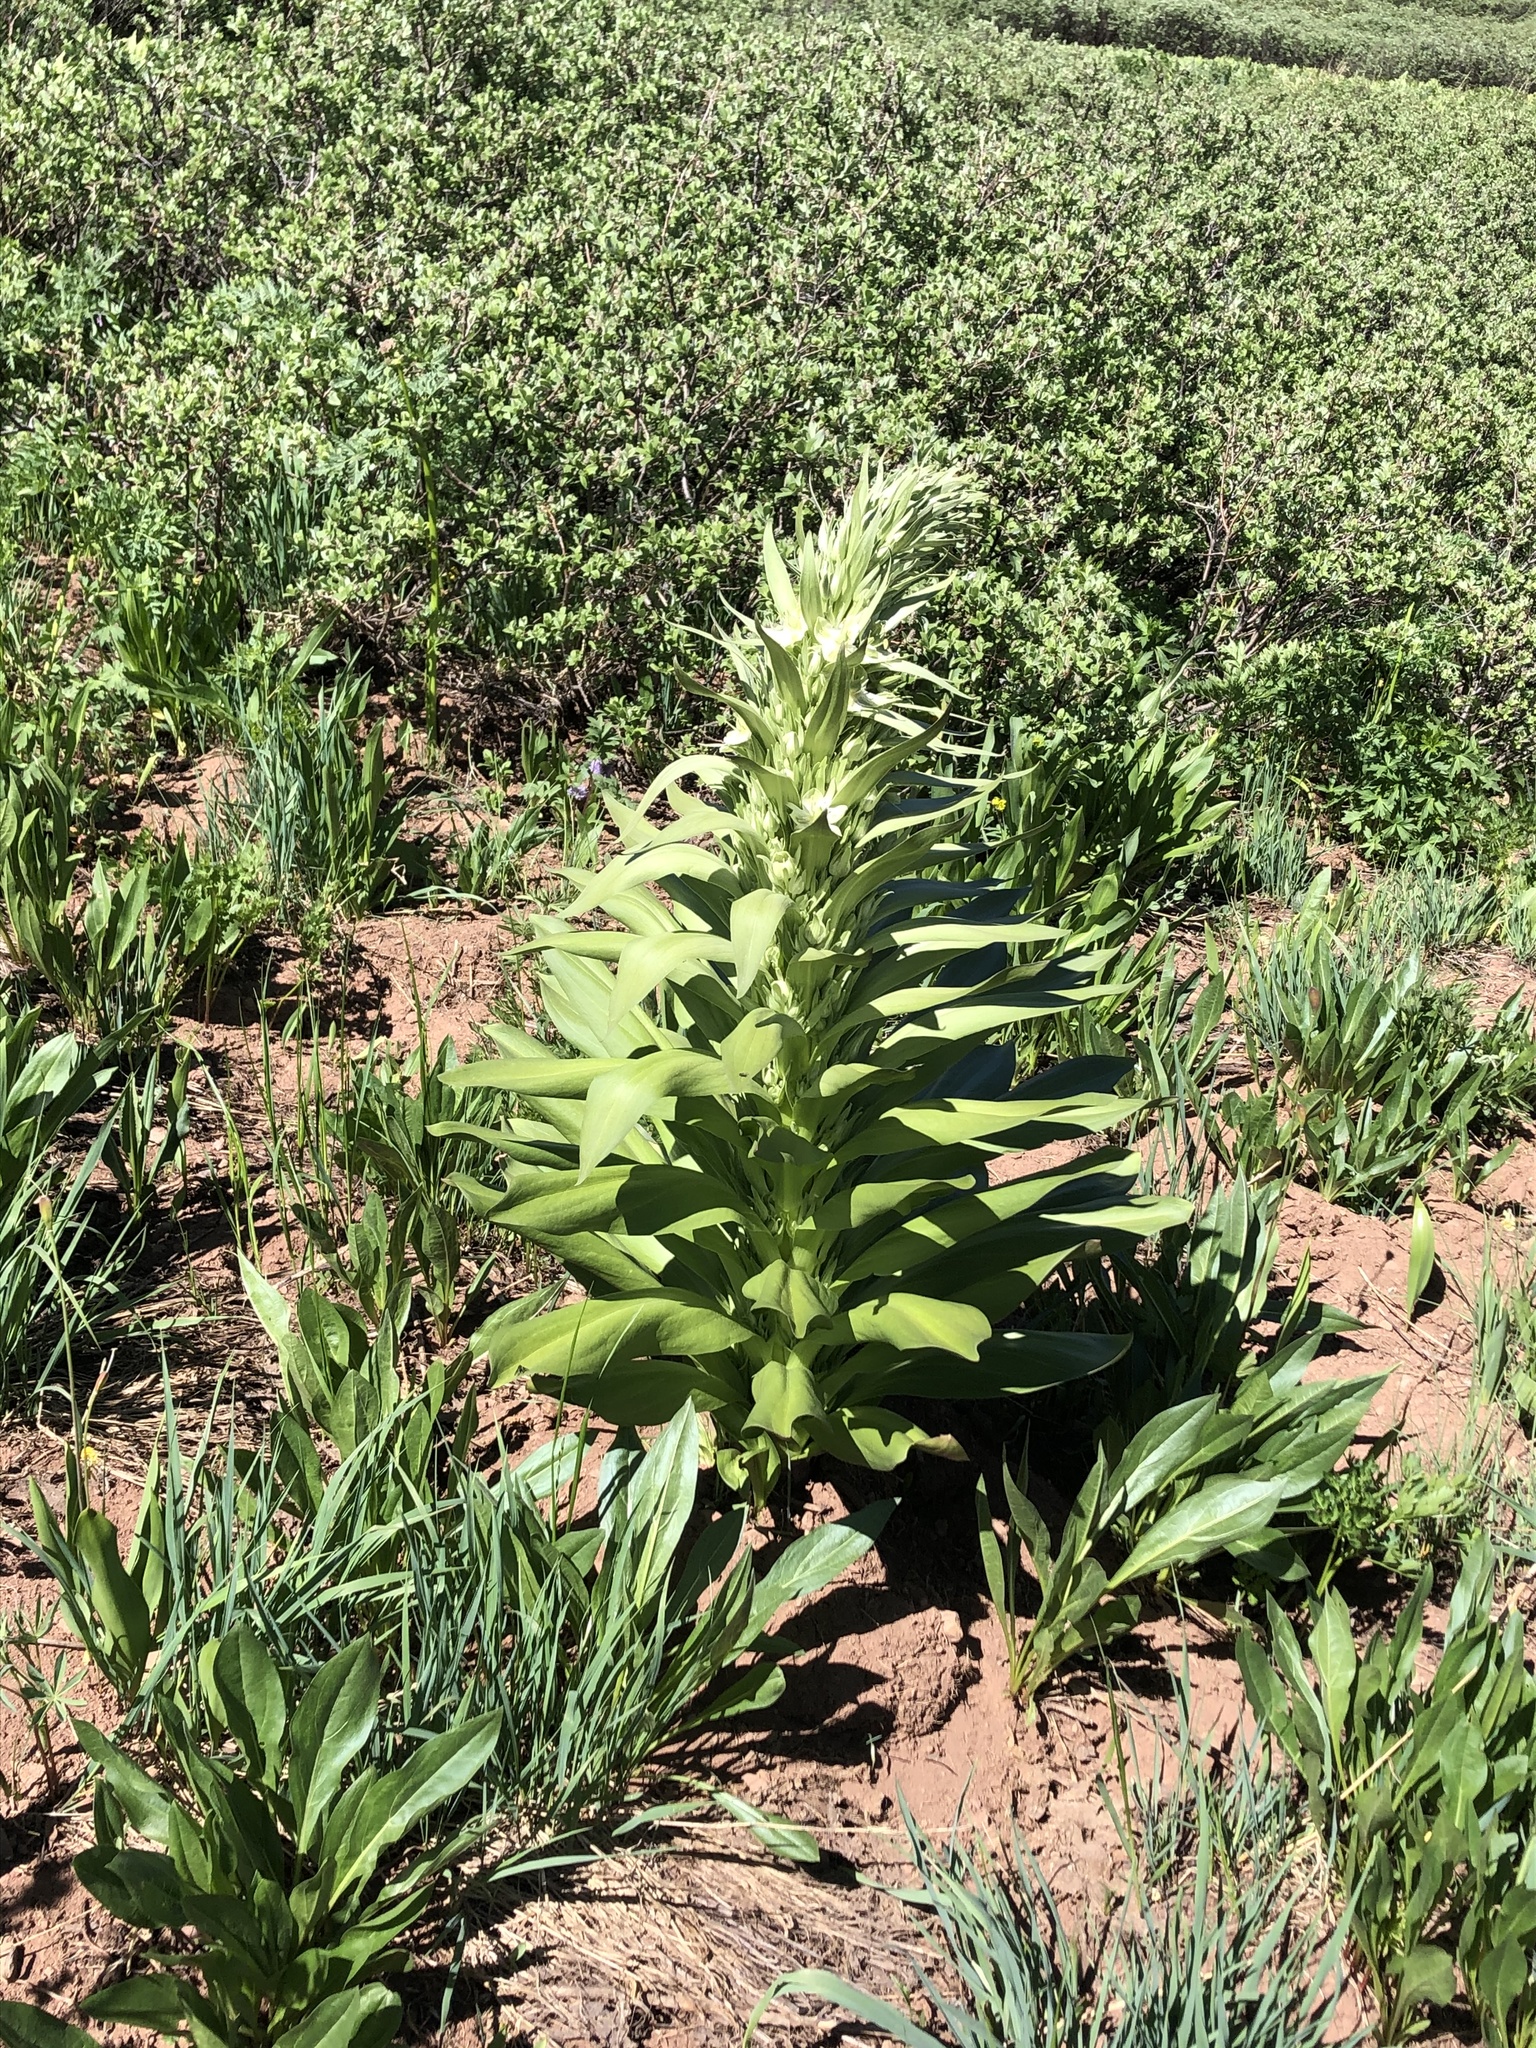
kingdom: Plantae
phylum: Tracheophyta
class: Magnoliopsida
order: Gentianales
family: Gentianaceae
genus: Frasera
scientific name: Frasera speciosa
